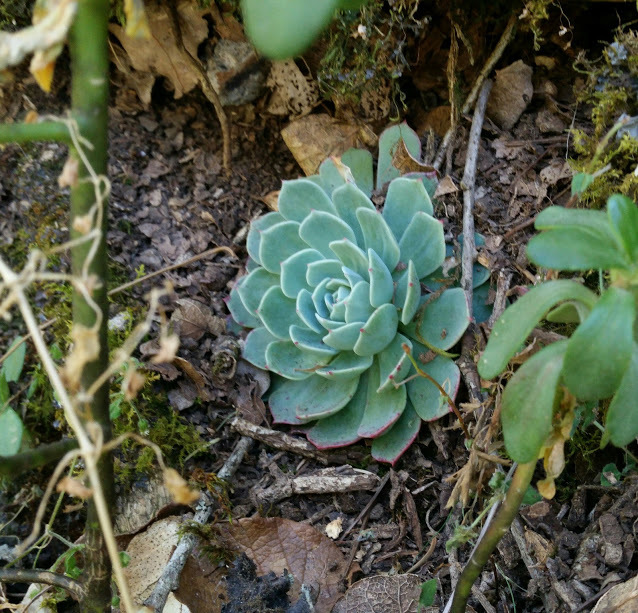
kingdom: Plantae
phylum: Tracheophyta
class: Magnoliopsida
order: Saxifragales
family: Crassulaceae
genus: Echeveria
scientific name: Echeveria secunda
